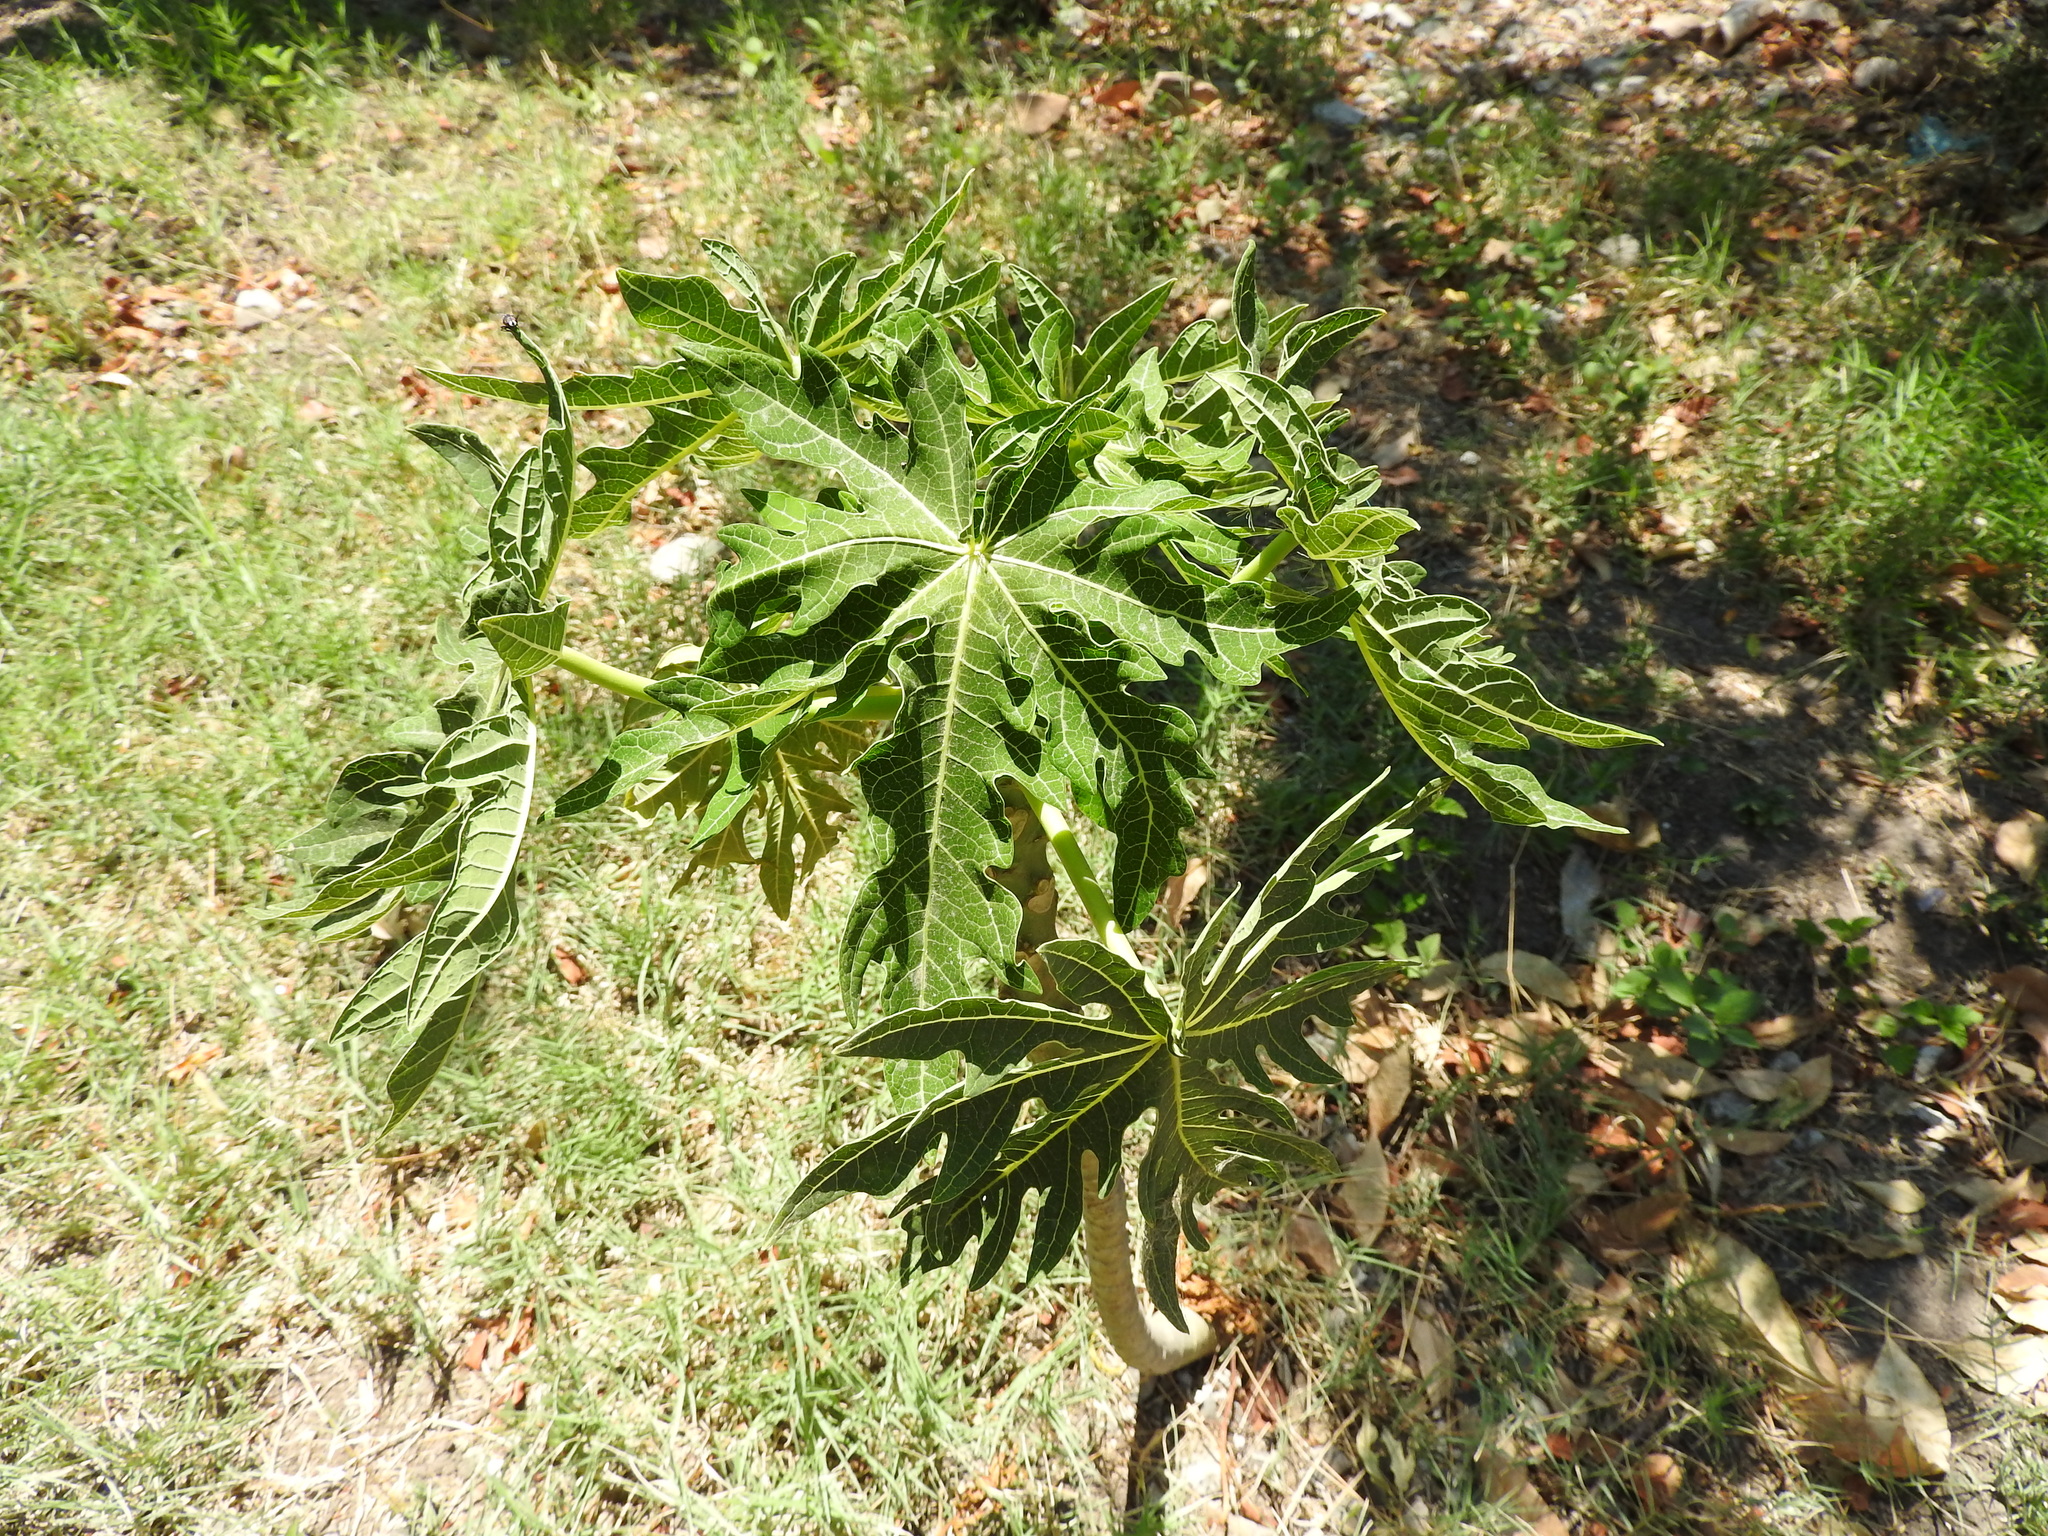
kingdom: Plantae
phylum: Tracheophyta
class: Magnoliopsida
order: Brassicales
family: Caricaceae
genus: Carica
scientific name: Carica papaya
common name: Papaya
